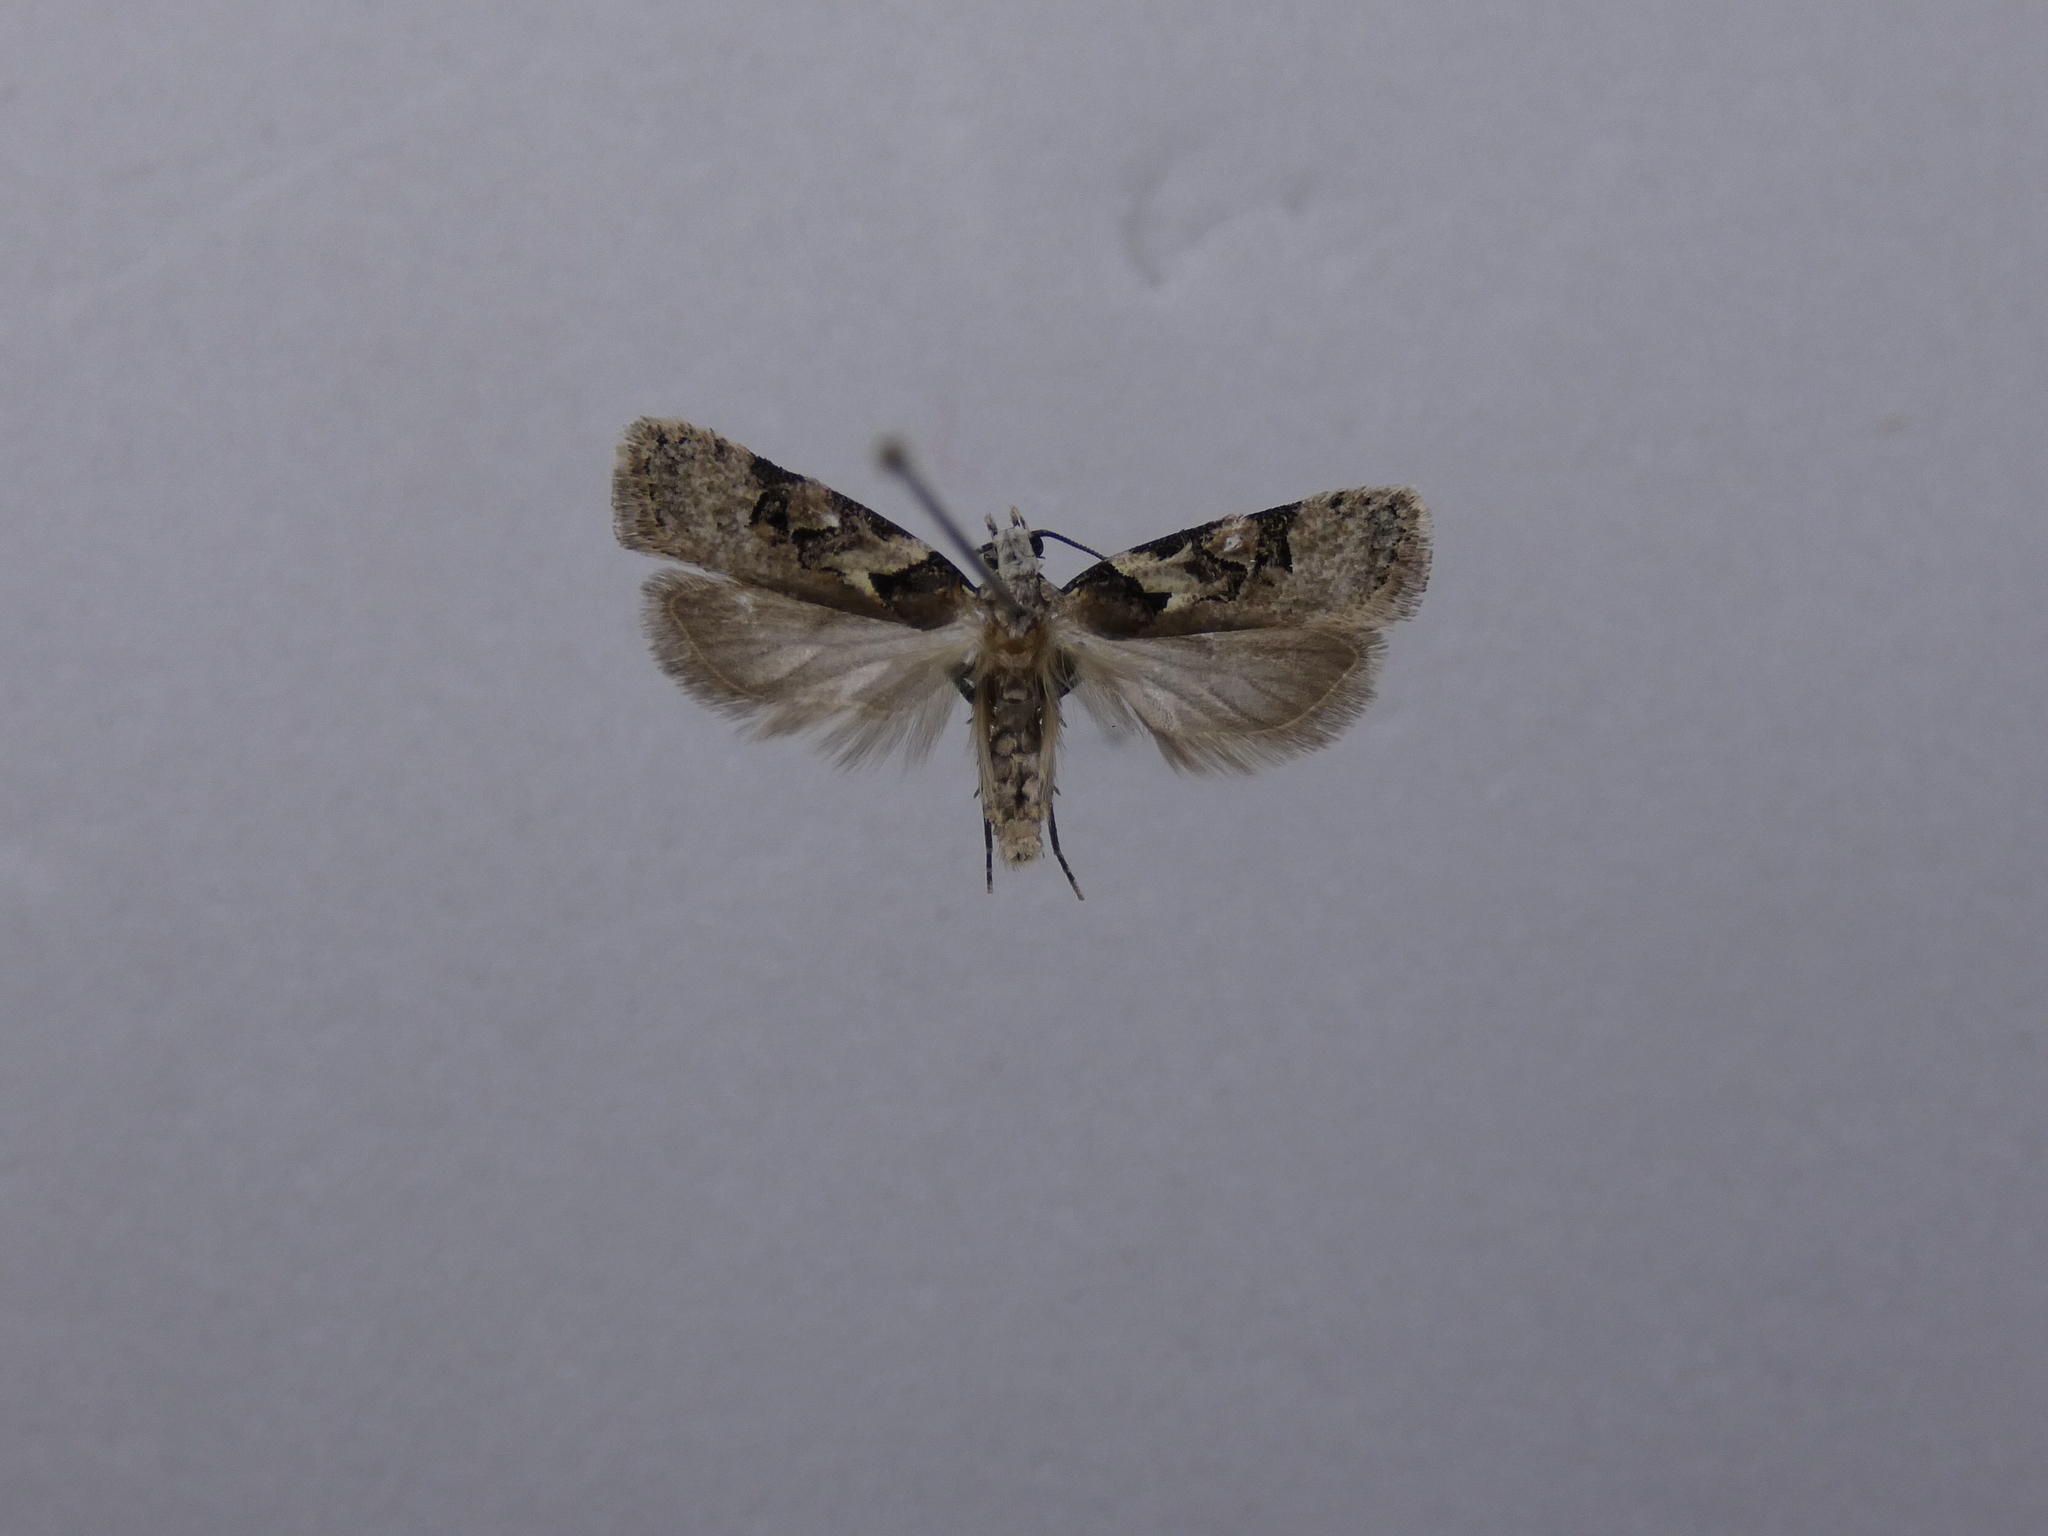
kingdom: Animalia
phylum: Arthropoda
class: Insecta
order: Lepidoptera
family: Oecophoridae
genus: Izatha
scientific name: Izatha epiphanes
